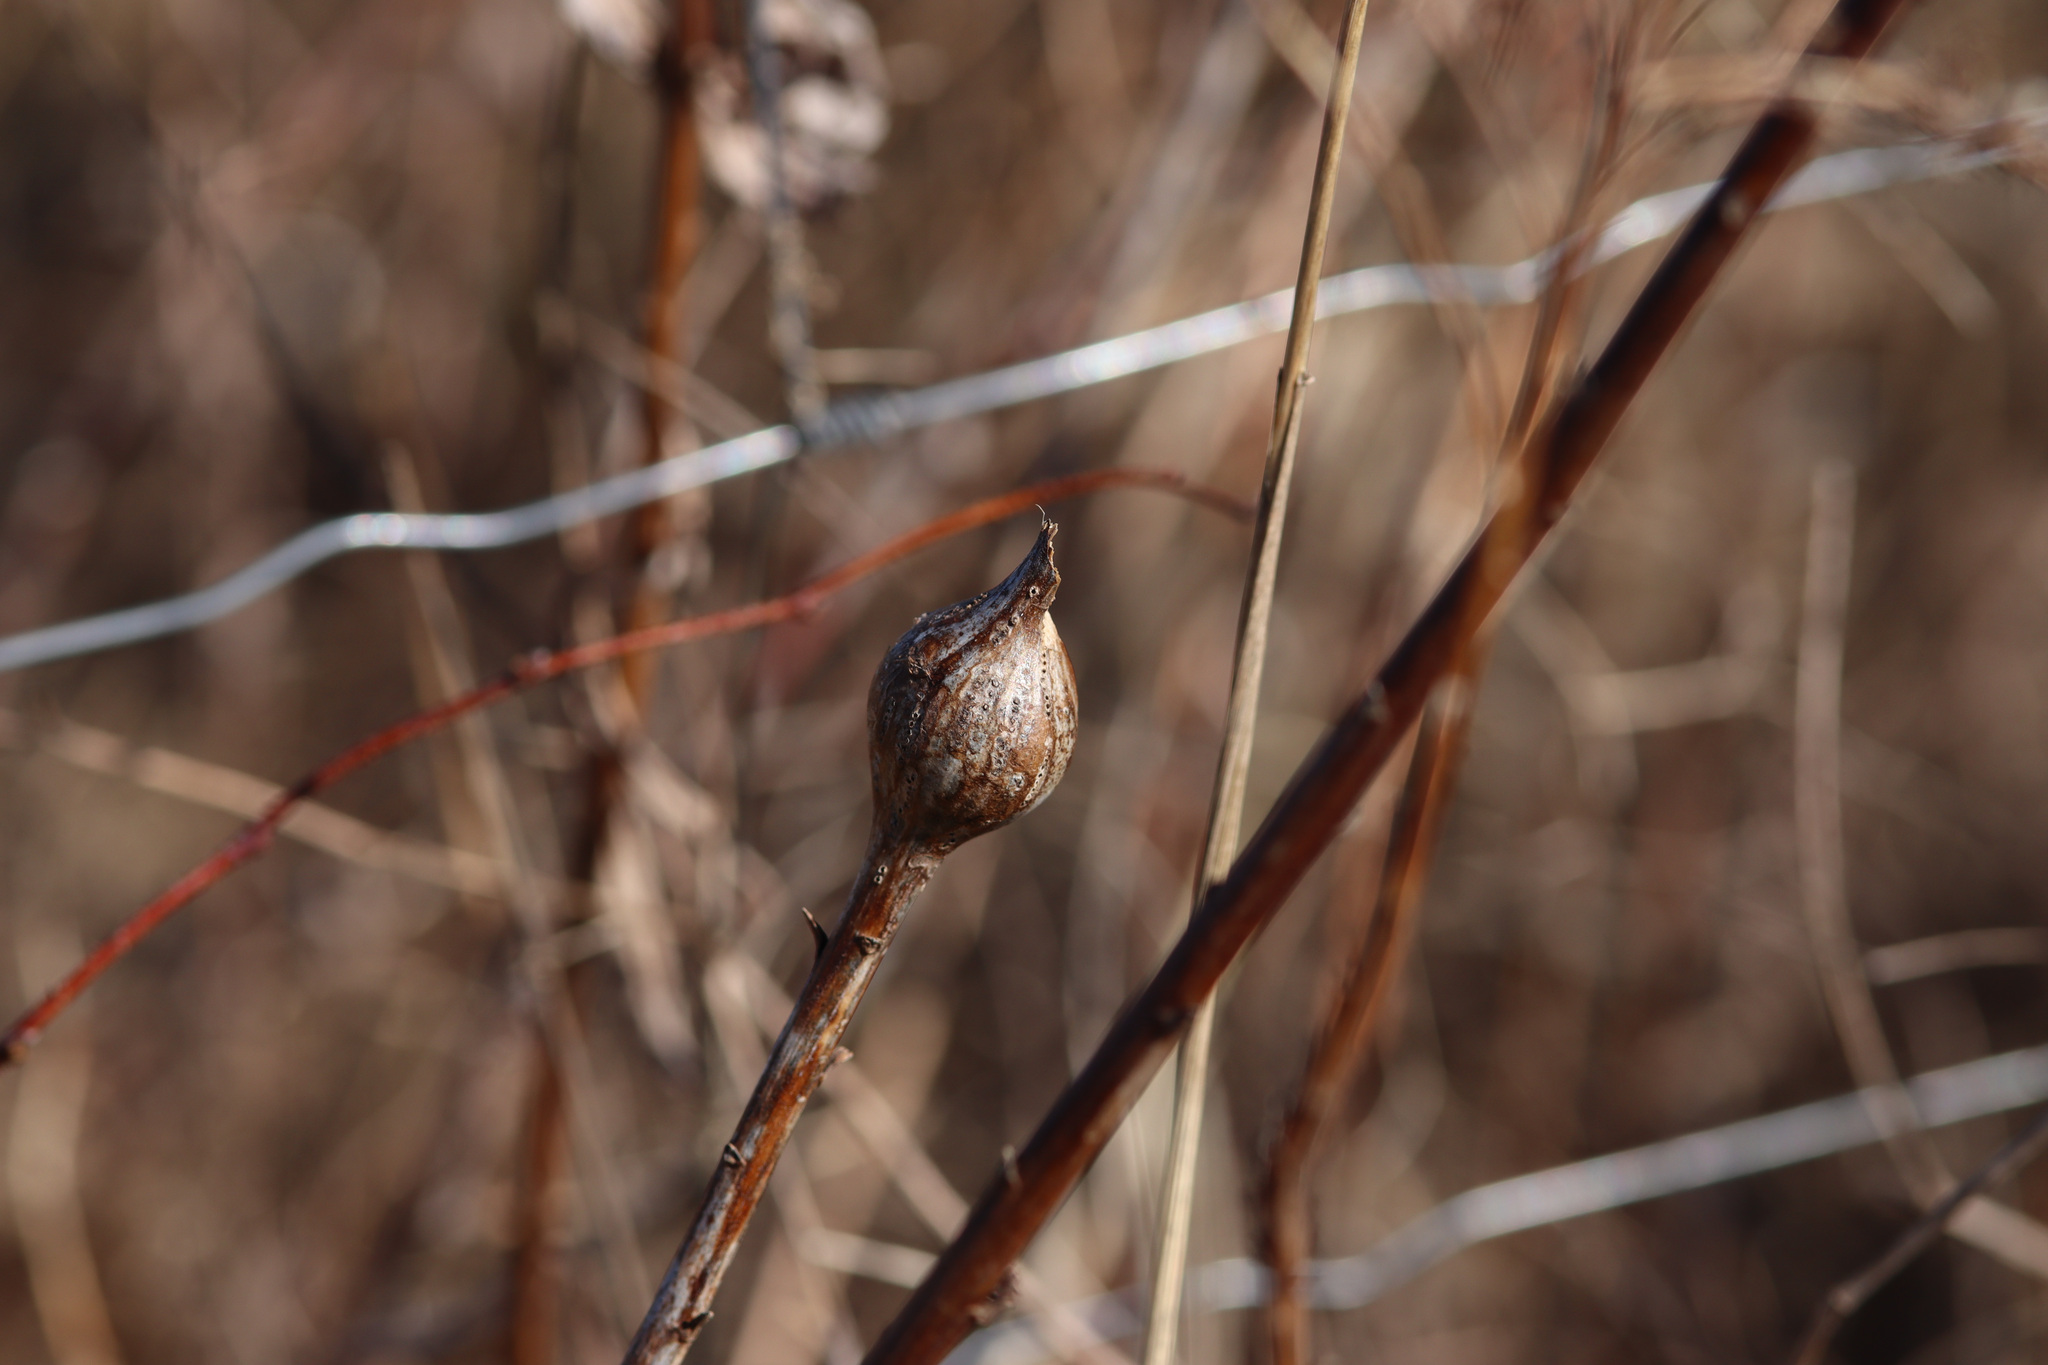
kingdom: Animalia
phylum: Arthropoda
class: Insecta
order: Diptera
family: Tephritidae
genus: Eurosta
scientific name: Eurosta solidaginis
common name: Goldenrod gall fly
